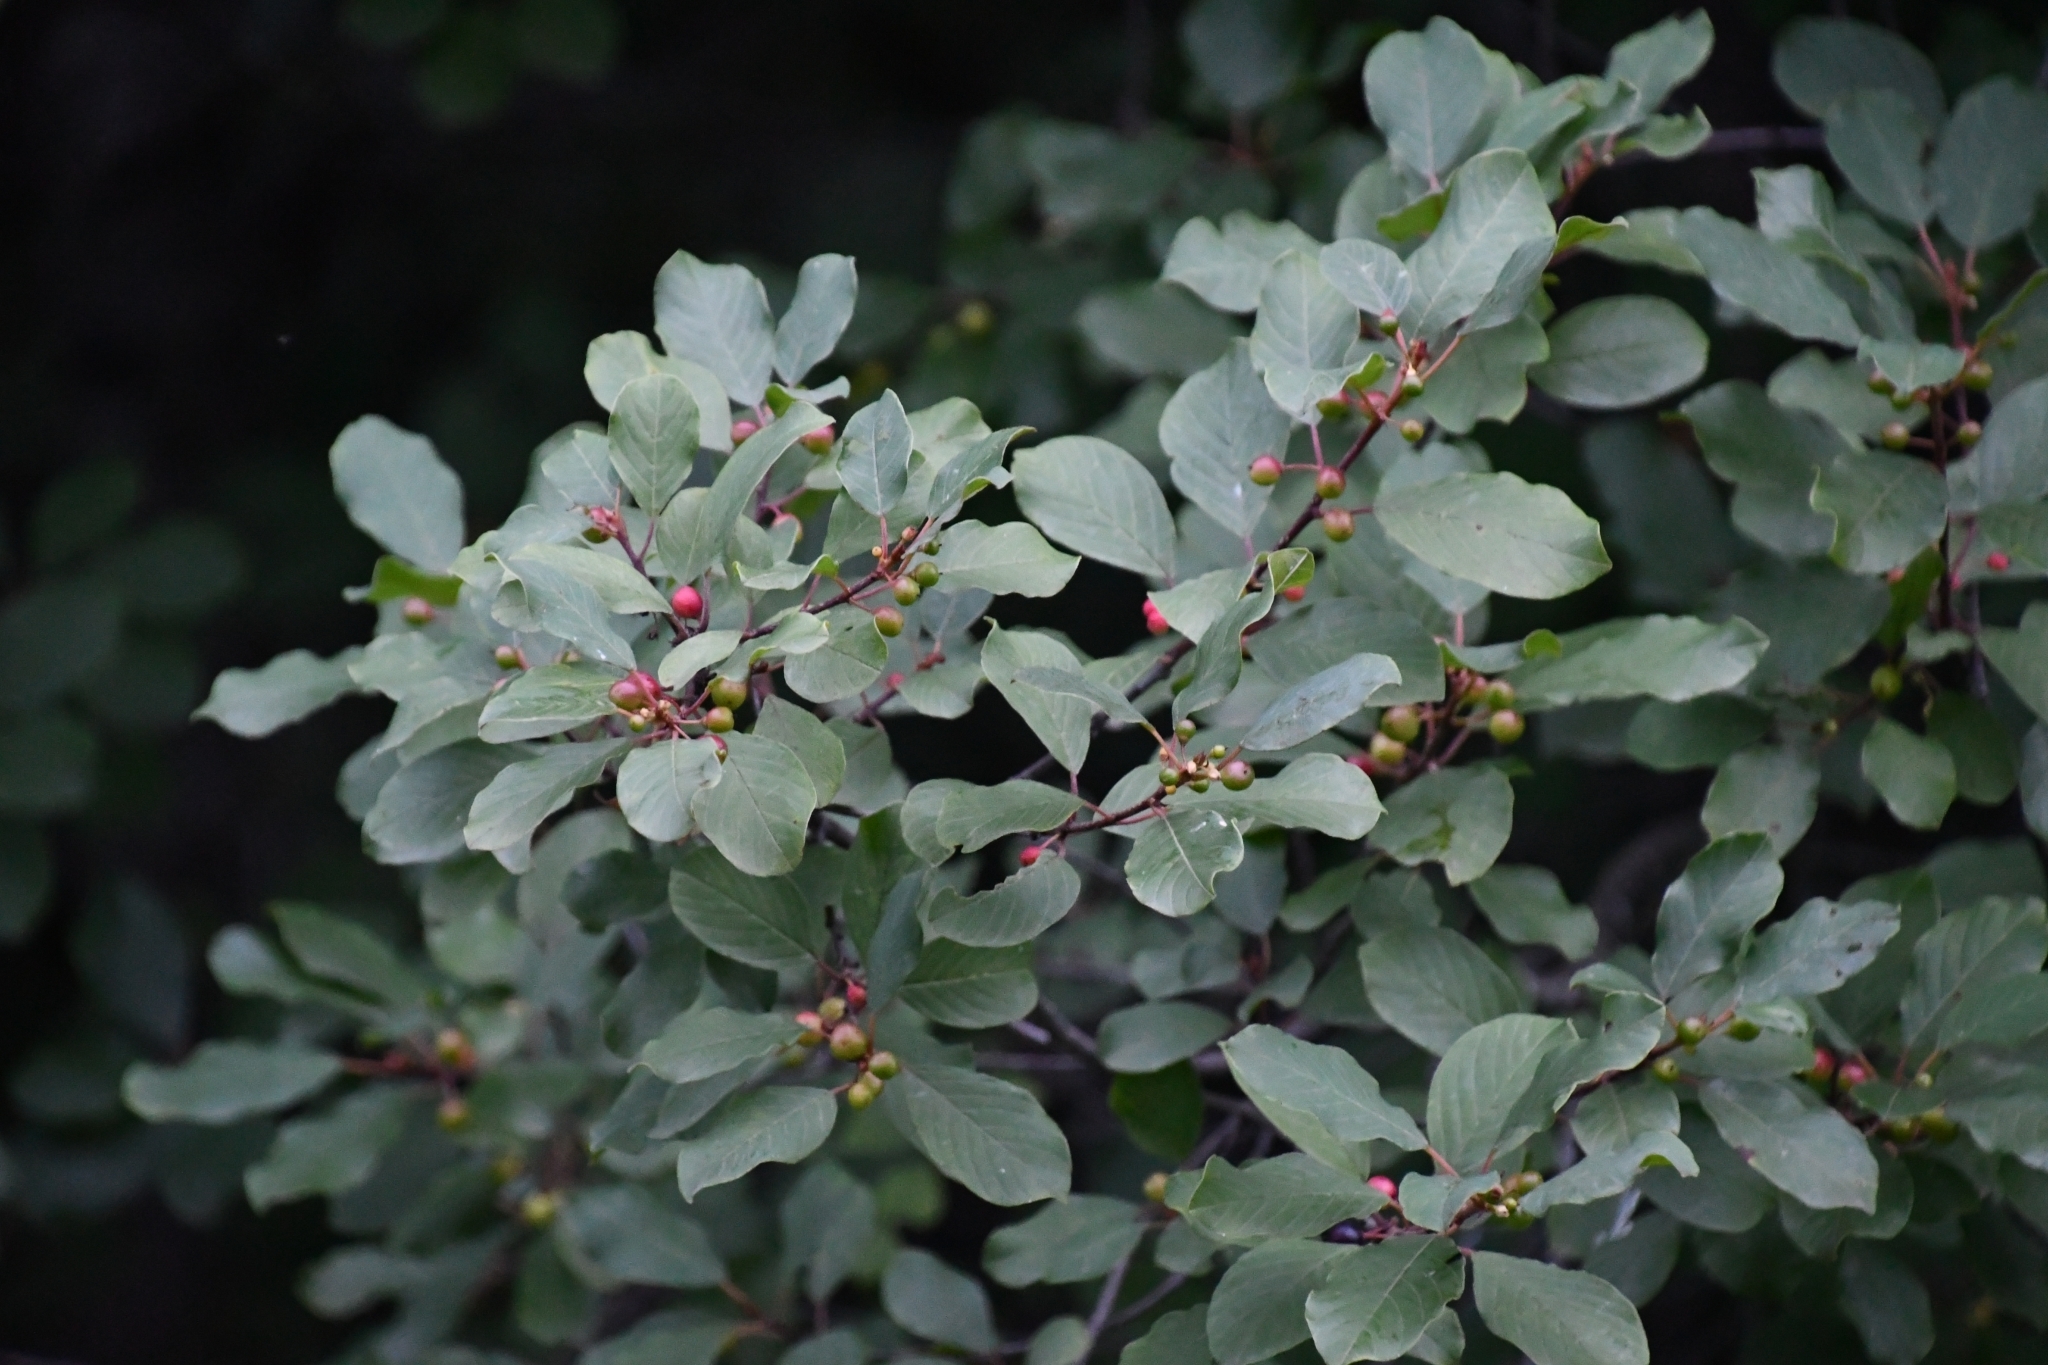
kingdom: Plantae
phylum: Tracheophyta
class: Magnoliopsida
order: Rosales
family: Rhamnaceae
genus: Frangula
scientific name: Frangula alnus
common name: Alder buckthorn
